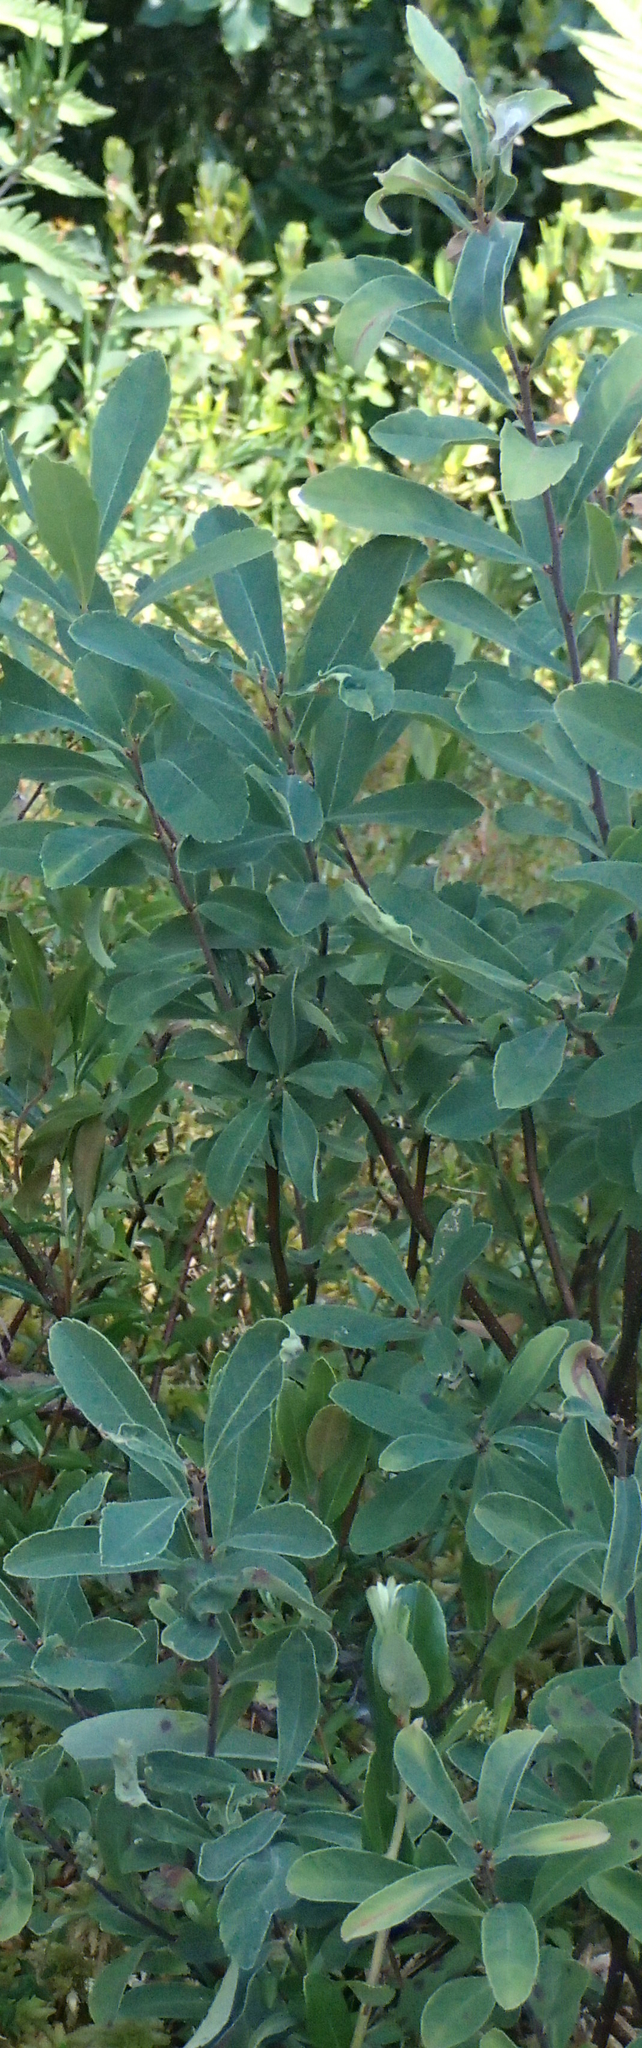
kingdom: Plantae
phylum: Tracheophyta
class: Magnoliopsida
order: Fagales
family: Myricaceae
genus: Myrica
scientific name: Myrica gale
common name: Sweet gale
